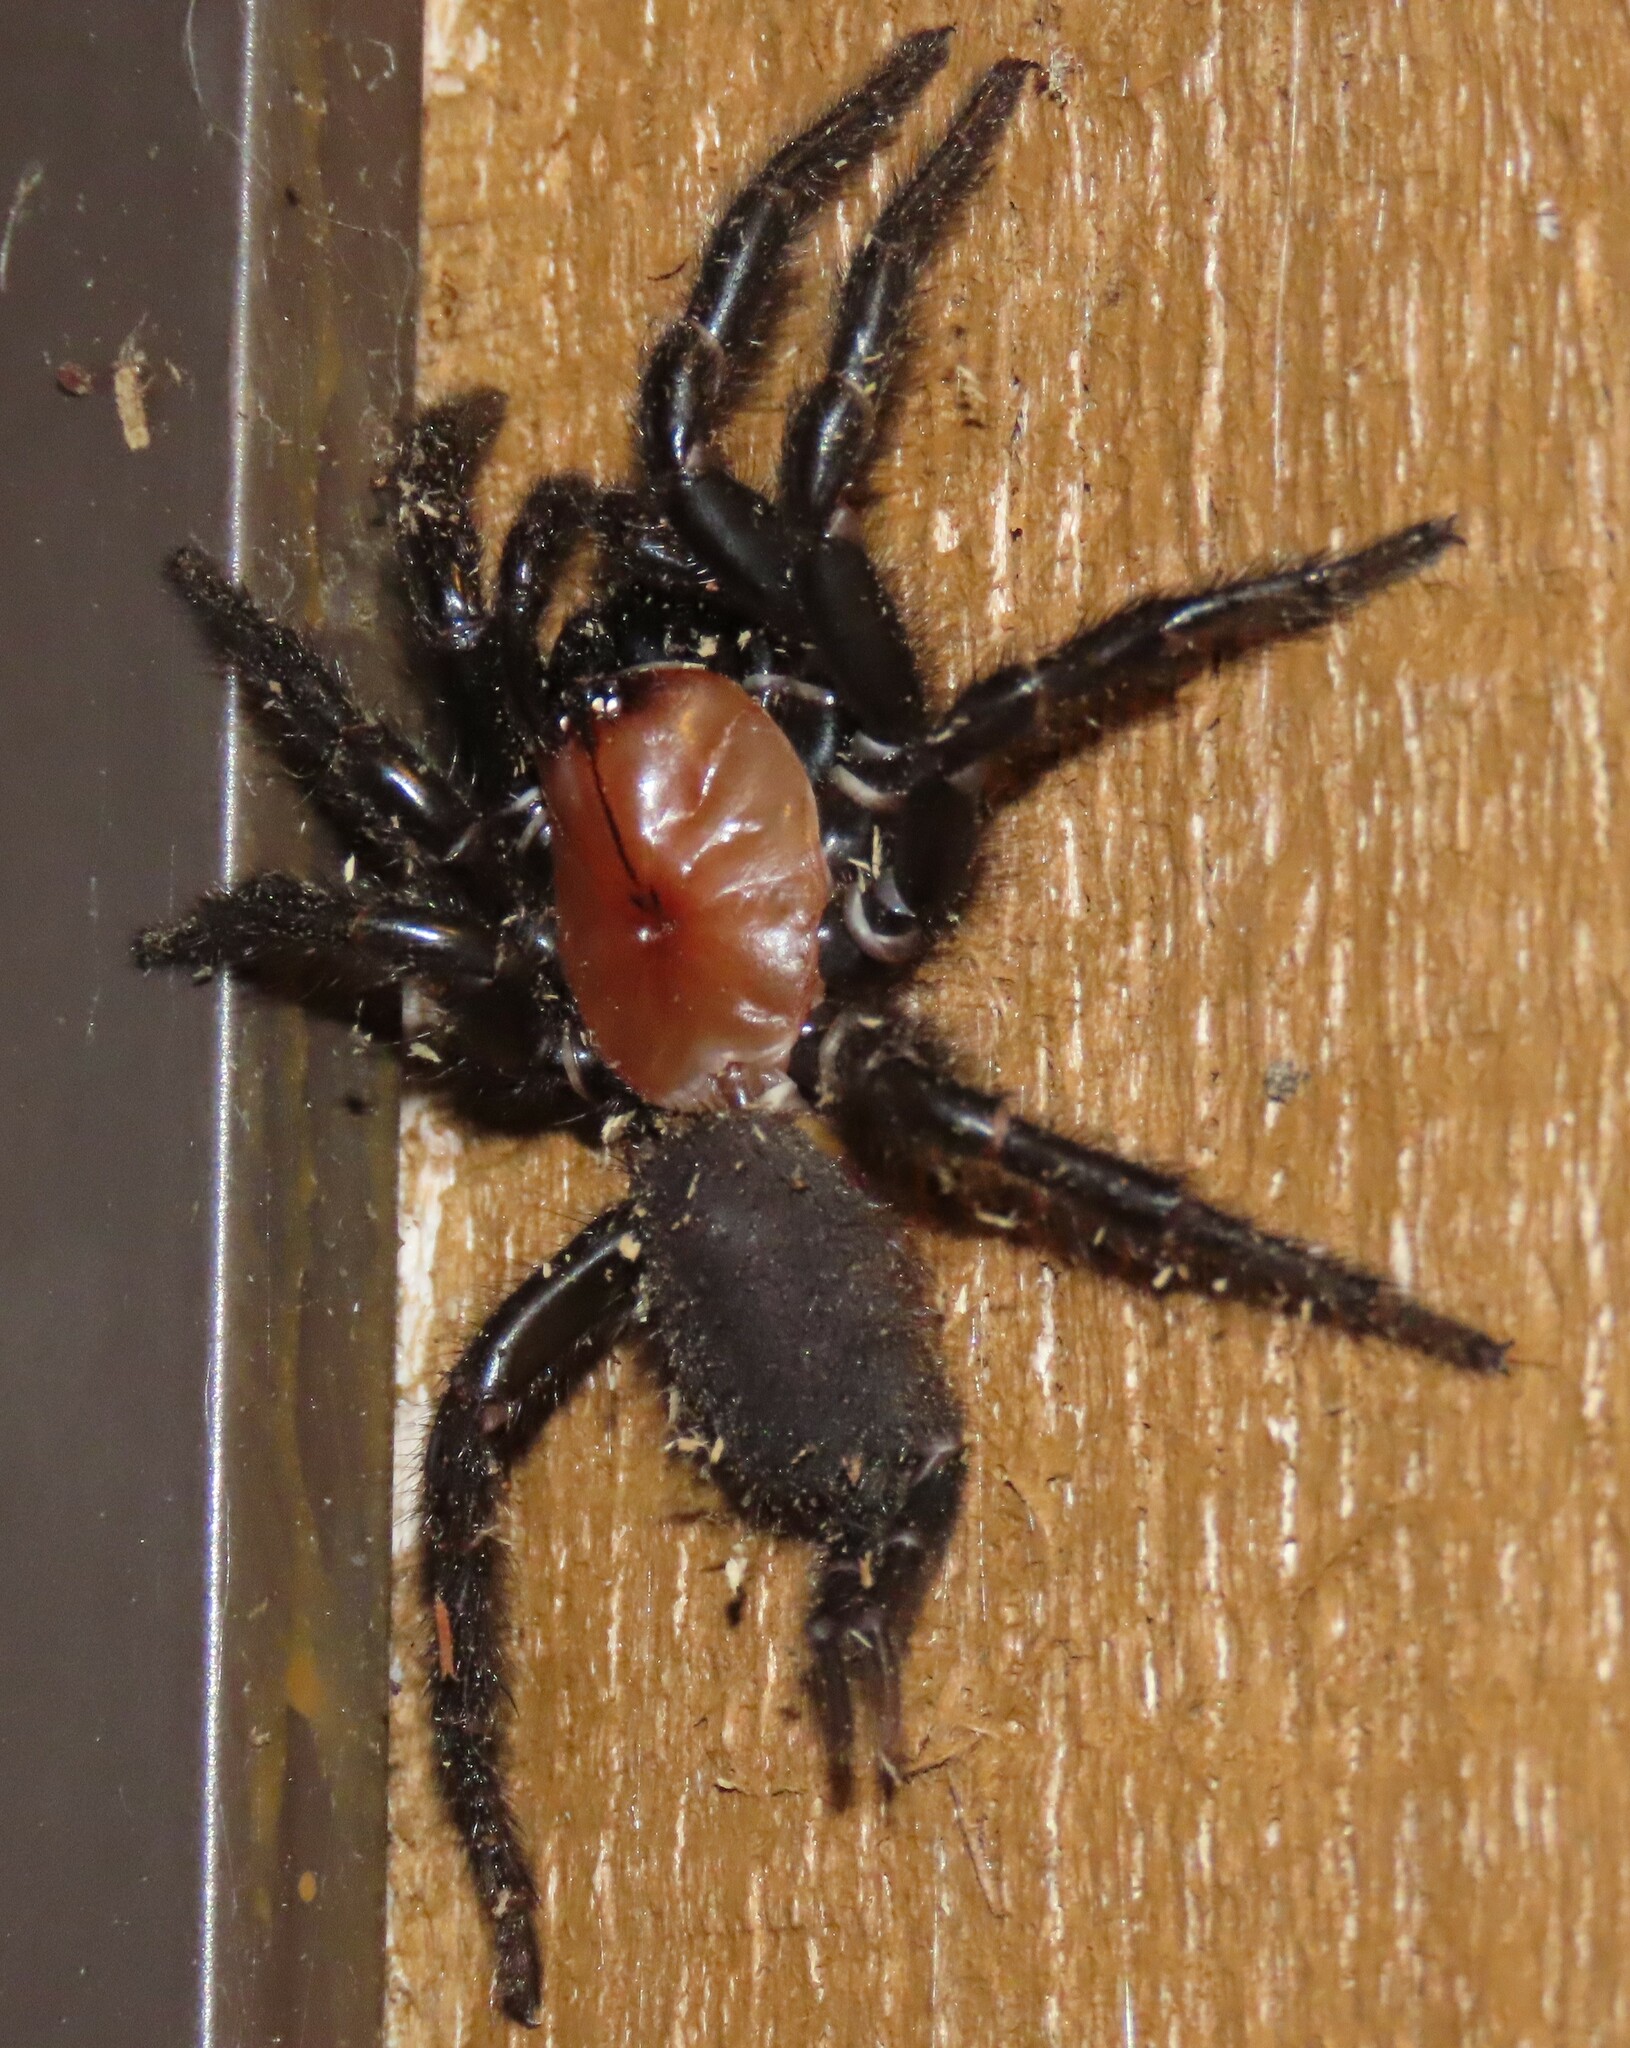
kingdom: Animalia
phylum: Arthropoda
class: Arachnida
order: Araneae
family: Porrhothelidae
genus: Porrhothele
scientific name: Porrhothele antipodiana
